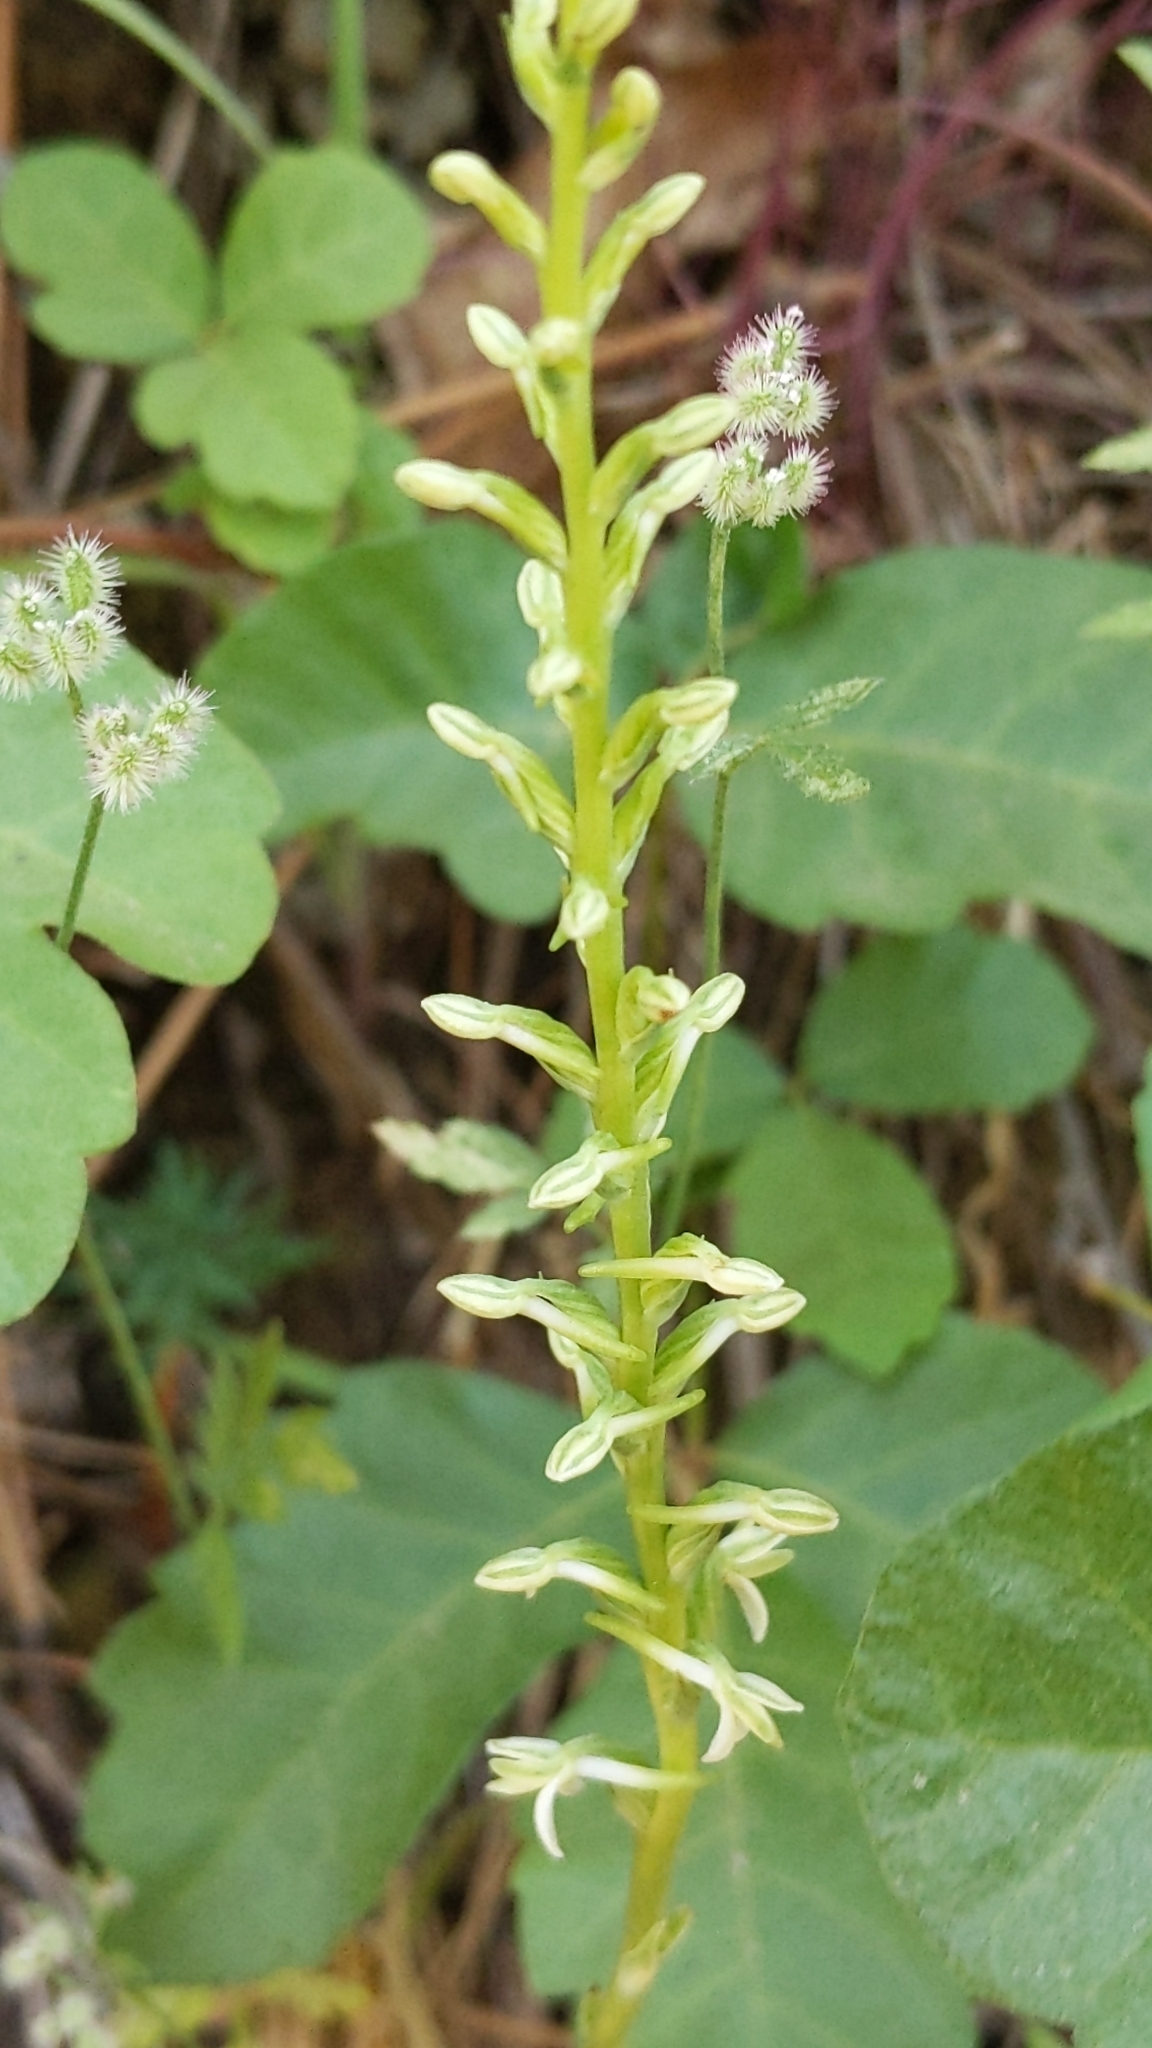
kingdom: Plantae
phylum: Tracheophyta
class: Liliopsida
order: Asparagales
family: Orchidaceae
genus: Platanthera
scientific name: Platanthera transversa
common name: Royal rein orchid
